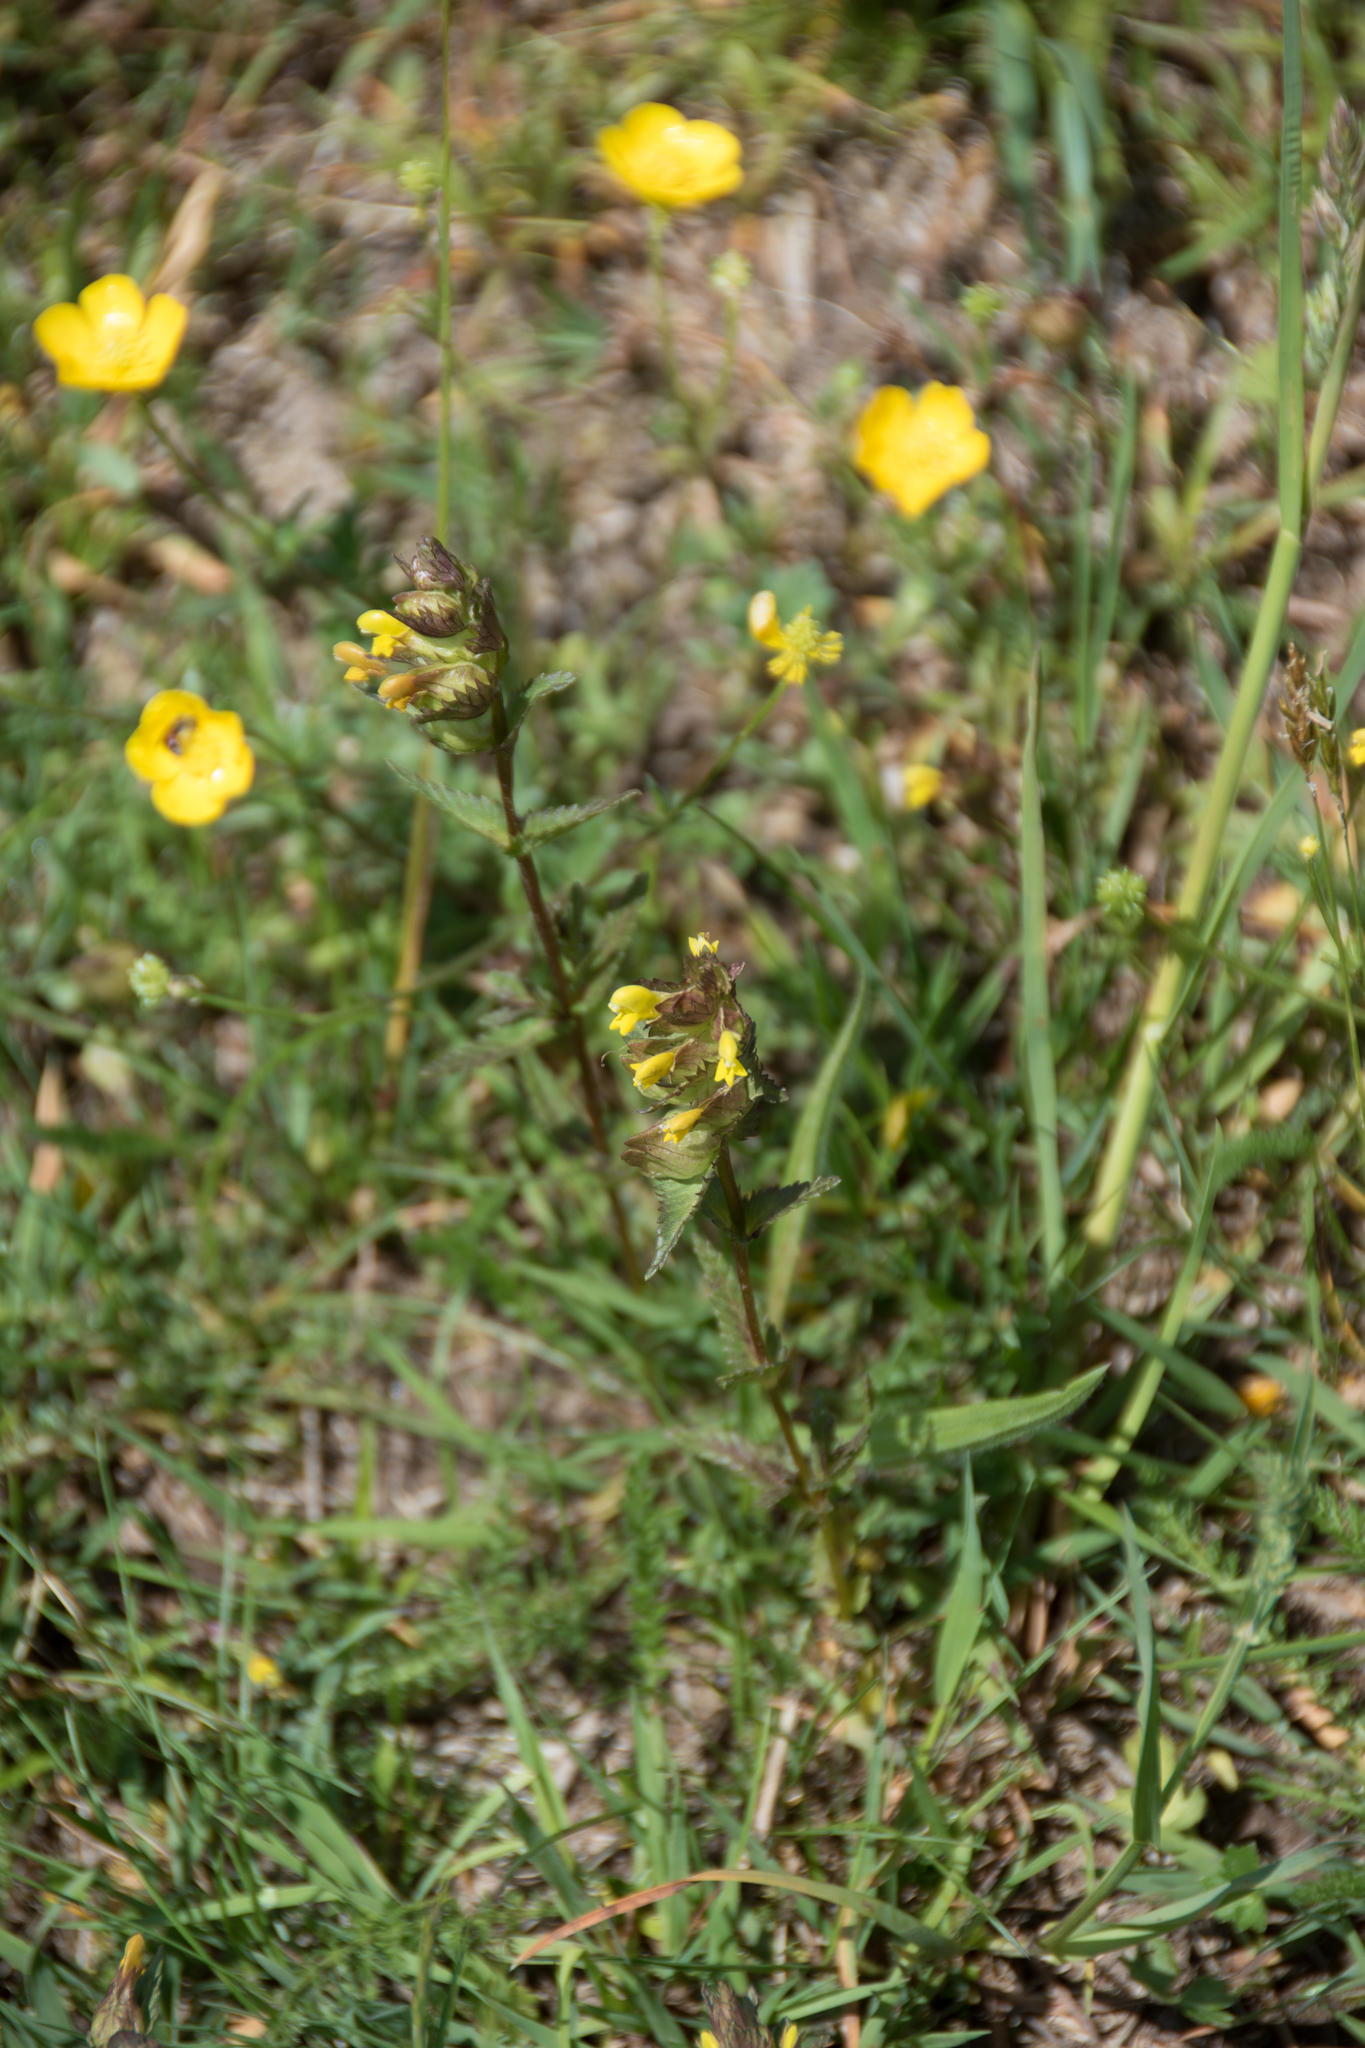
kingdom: Plantae
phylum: Tracheophyta
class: Magnoliopsida
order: Lamiales
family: Orobanchaceae
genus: Rhinanthus
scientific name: Rhinanthus minor
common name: Yellow-rattle
